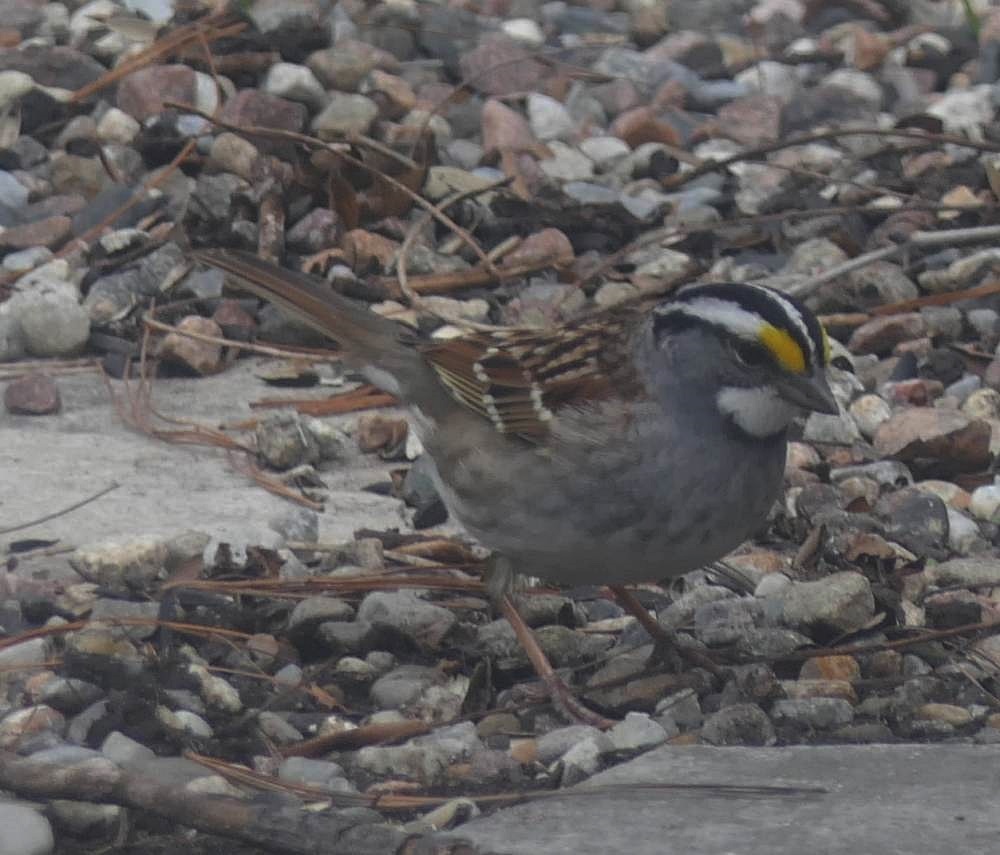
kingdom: Animalia
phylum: Chordata
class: Aves
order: Passeriformes
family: Passerellidae
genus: Zonotrichia
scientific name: Zonotrichia albicollis
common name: White-throated sparrow
